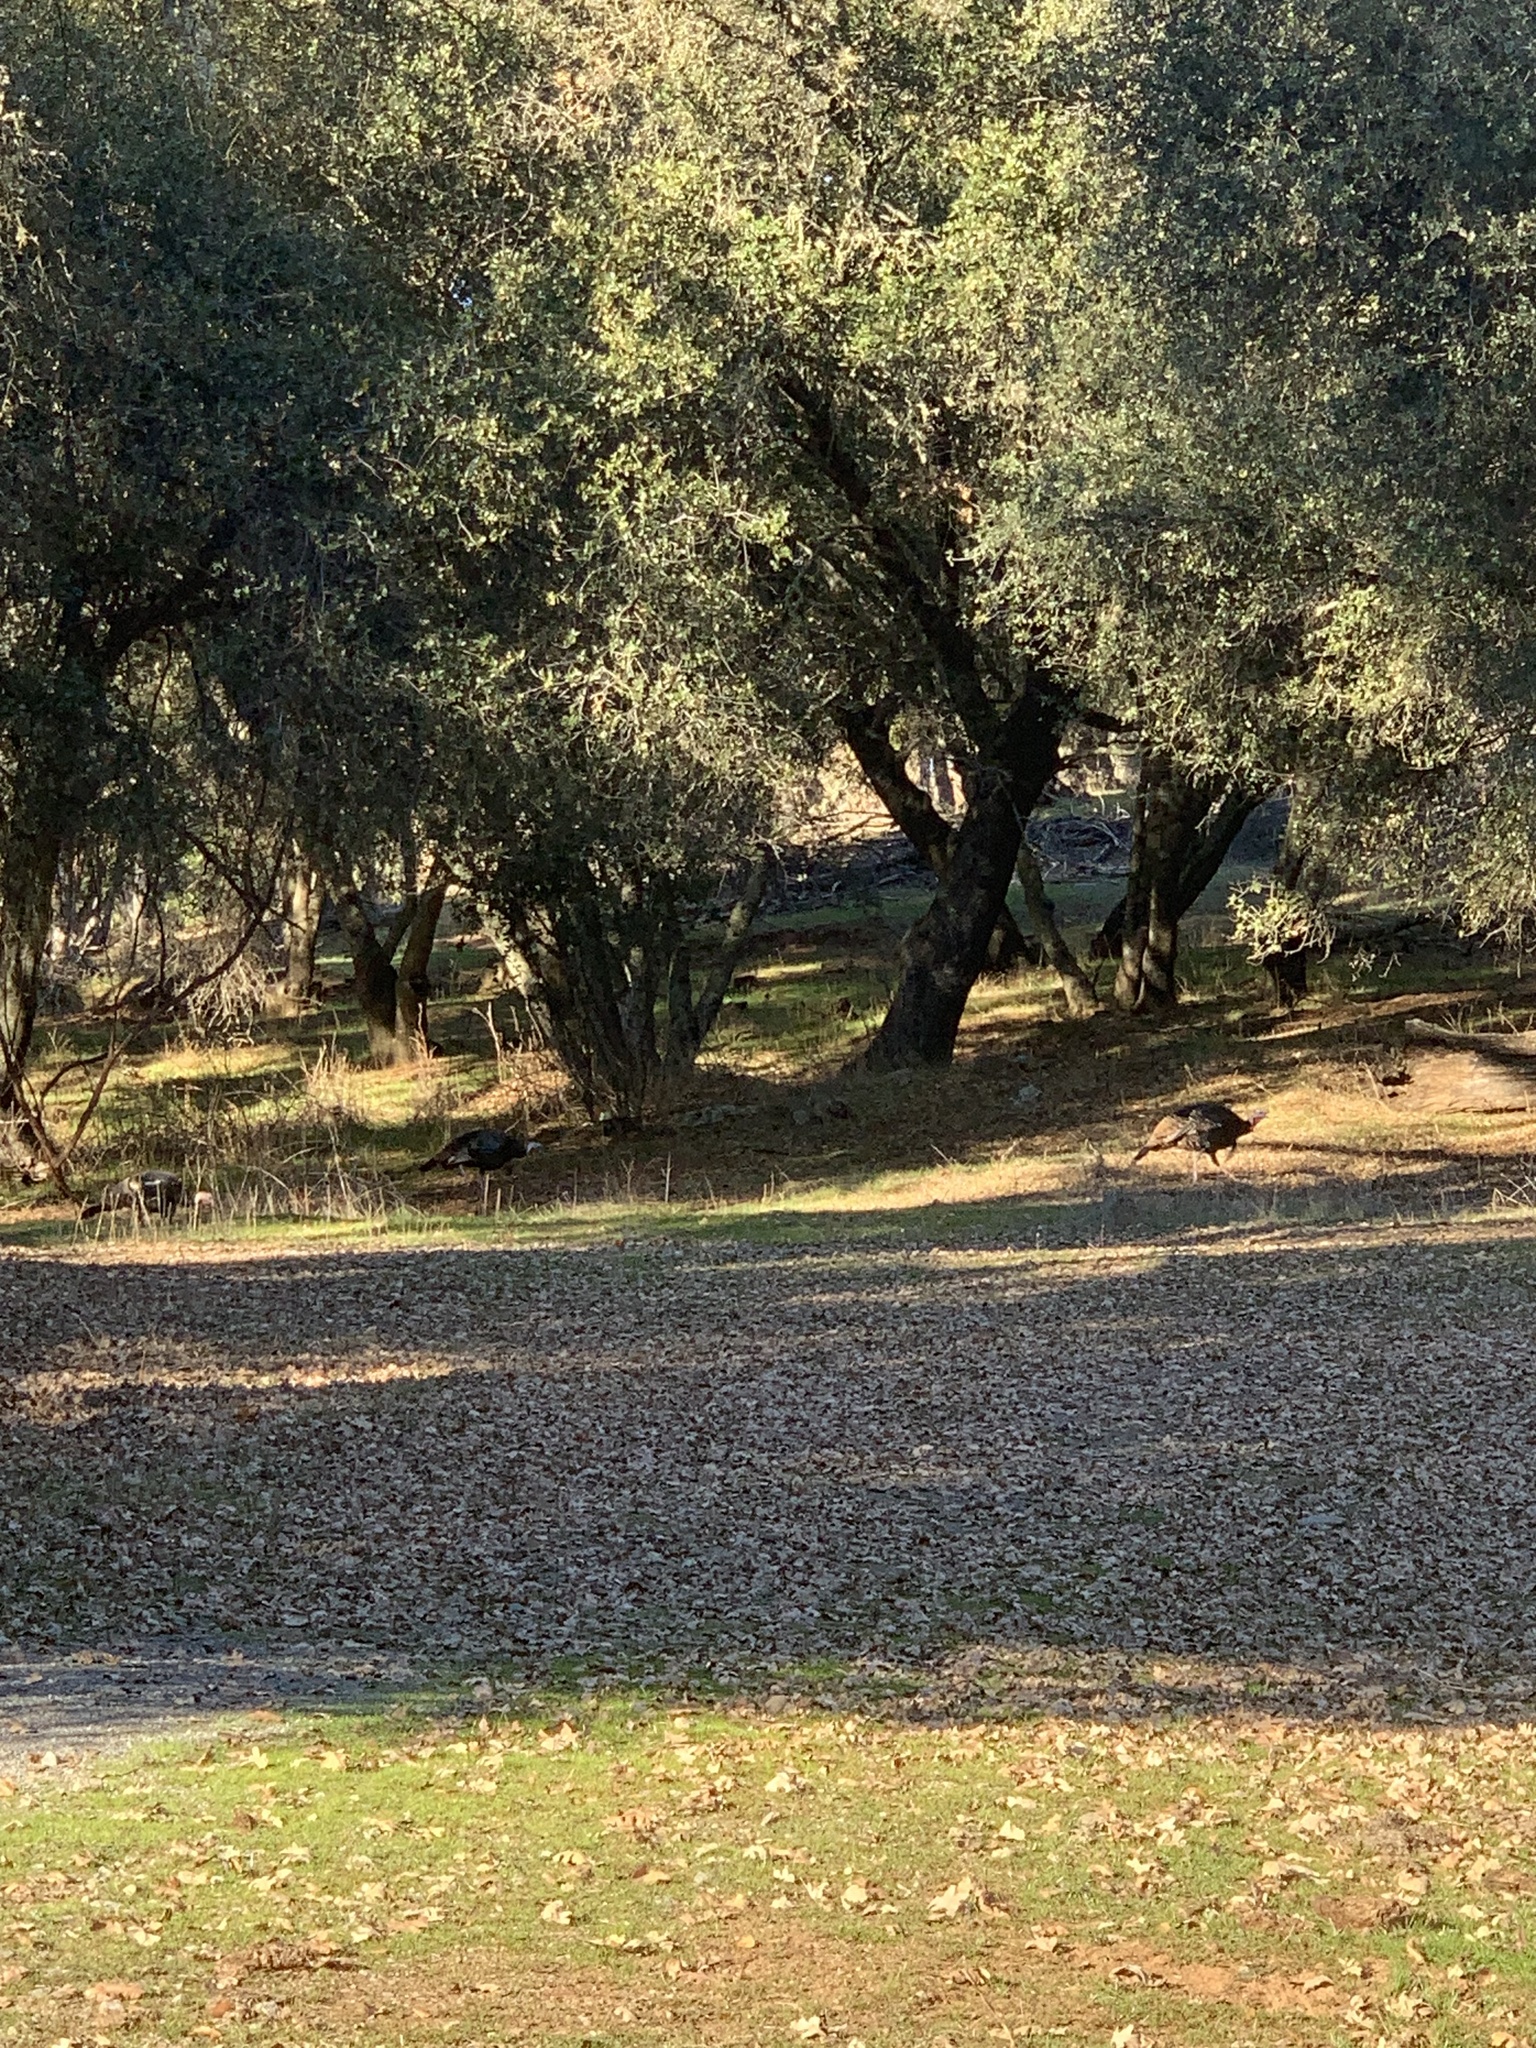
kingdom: Animalia
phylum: Chordata
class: Aves
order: Galliformes
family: Phasianidae
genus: Meleagris
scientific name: Meleagris gallopavo
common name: Wild turkey
